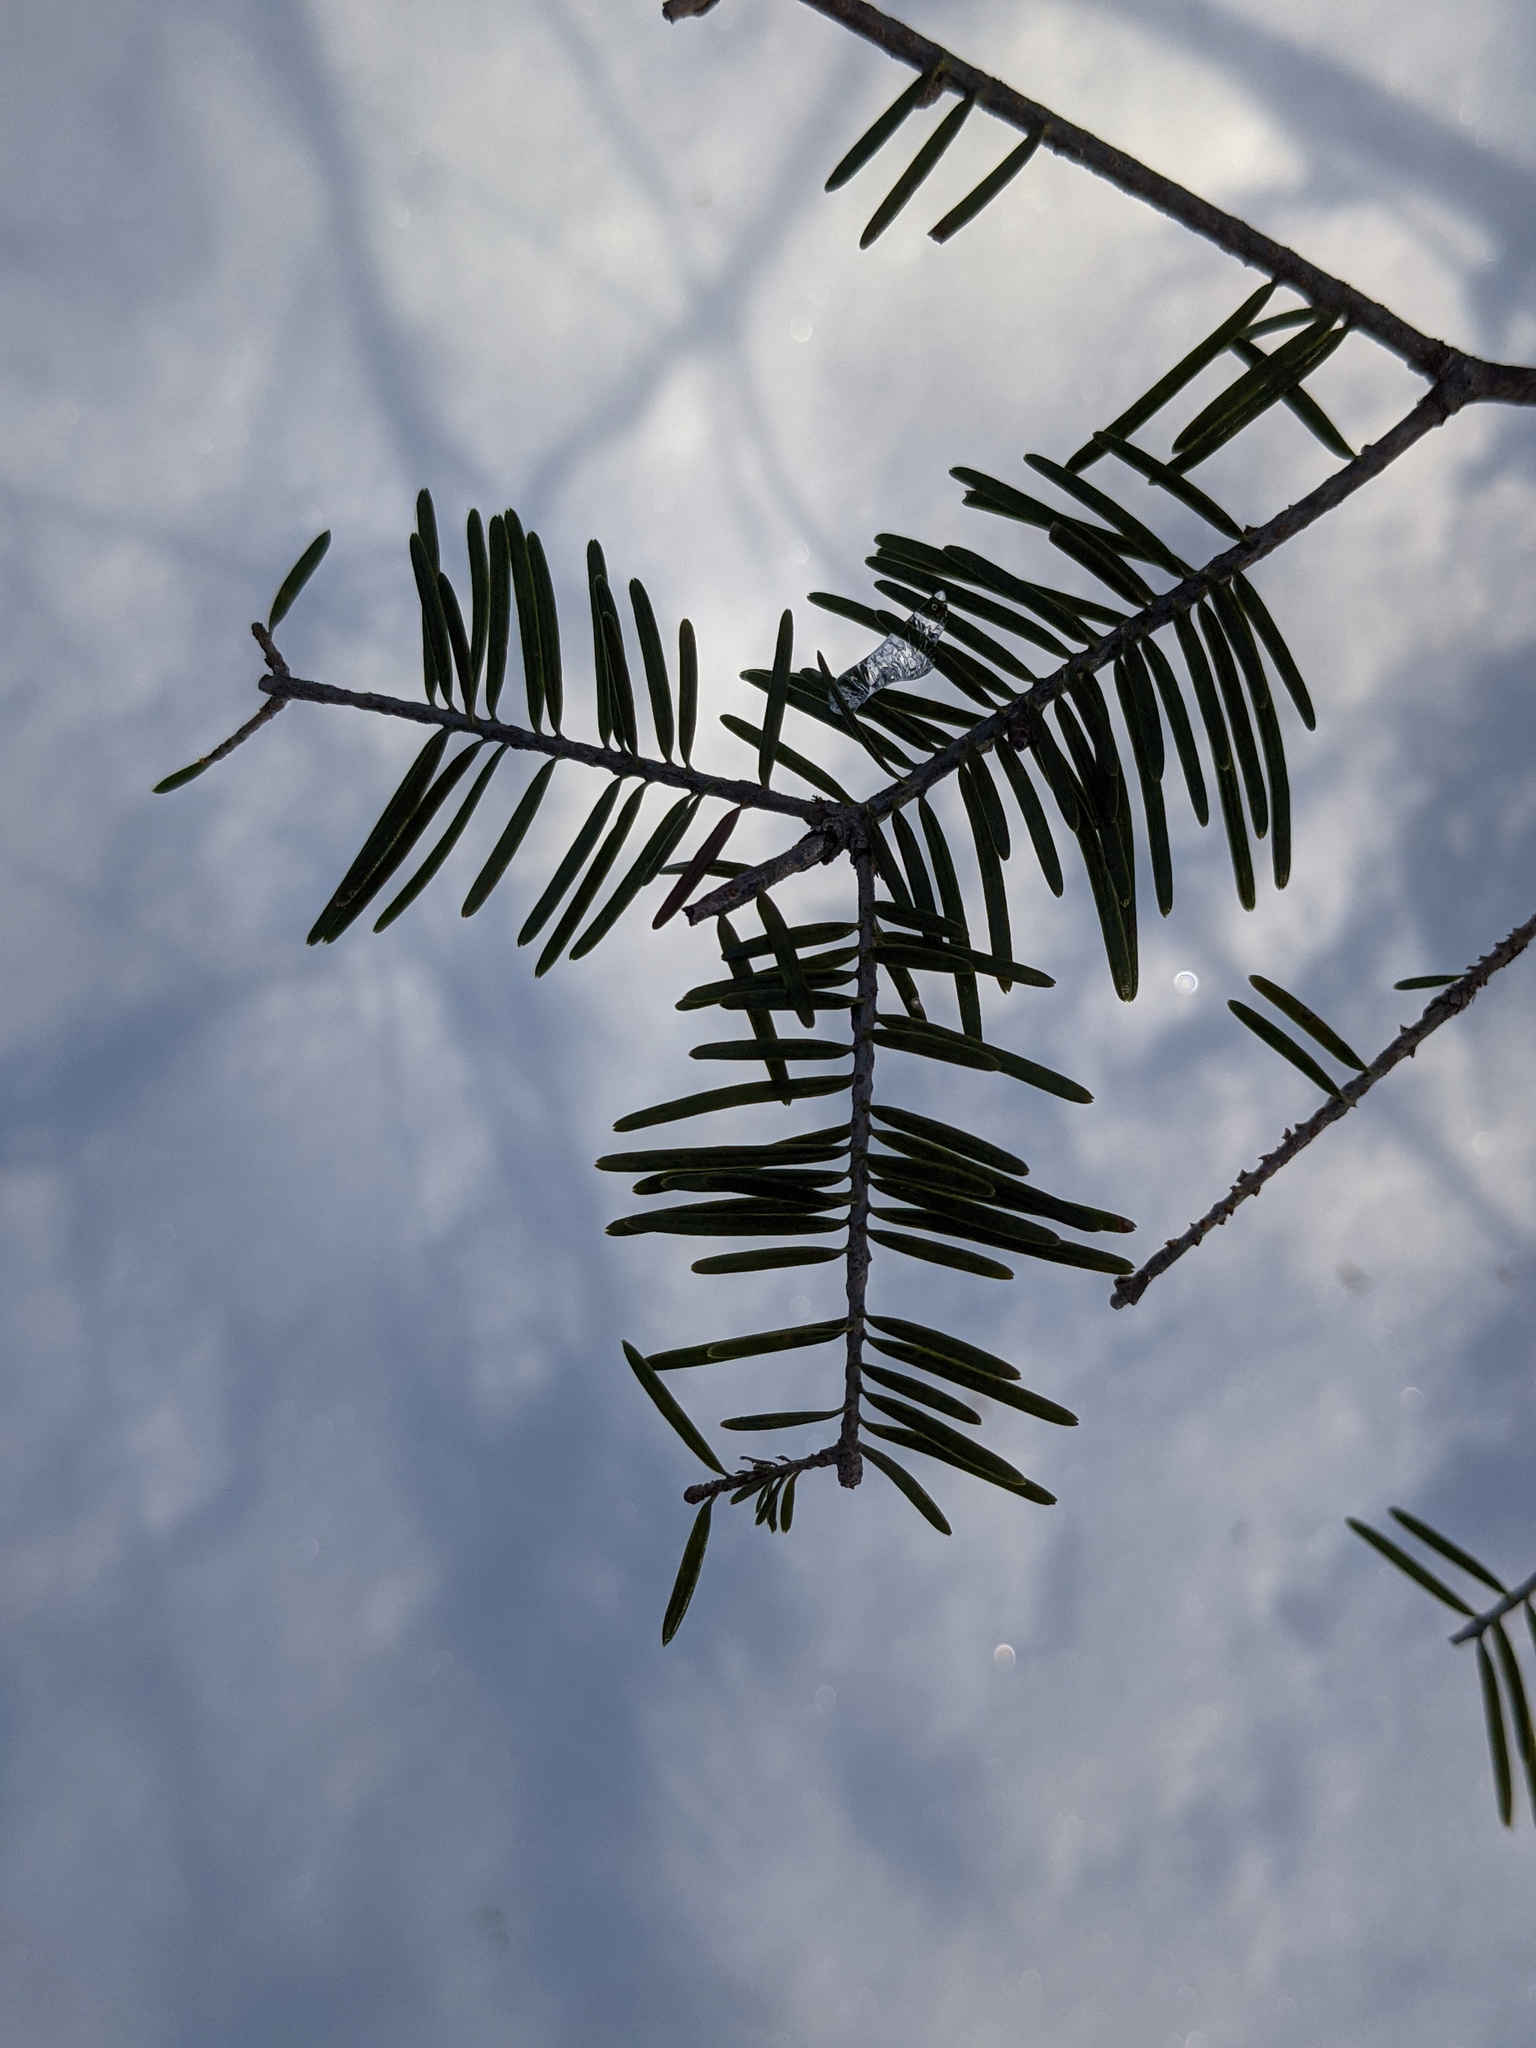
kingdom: Plantae
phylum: Tracheophyta
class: Pinopsida
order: Pinales
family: Pinaceae
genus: Abies
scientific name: Abies balsamea
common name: Balsam fir
